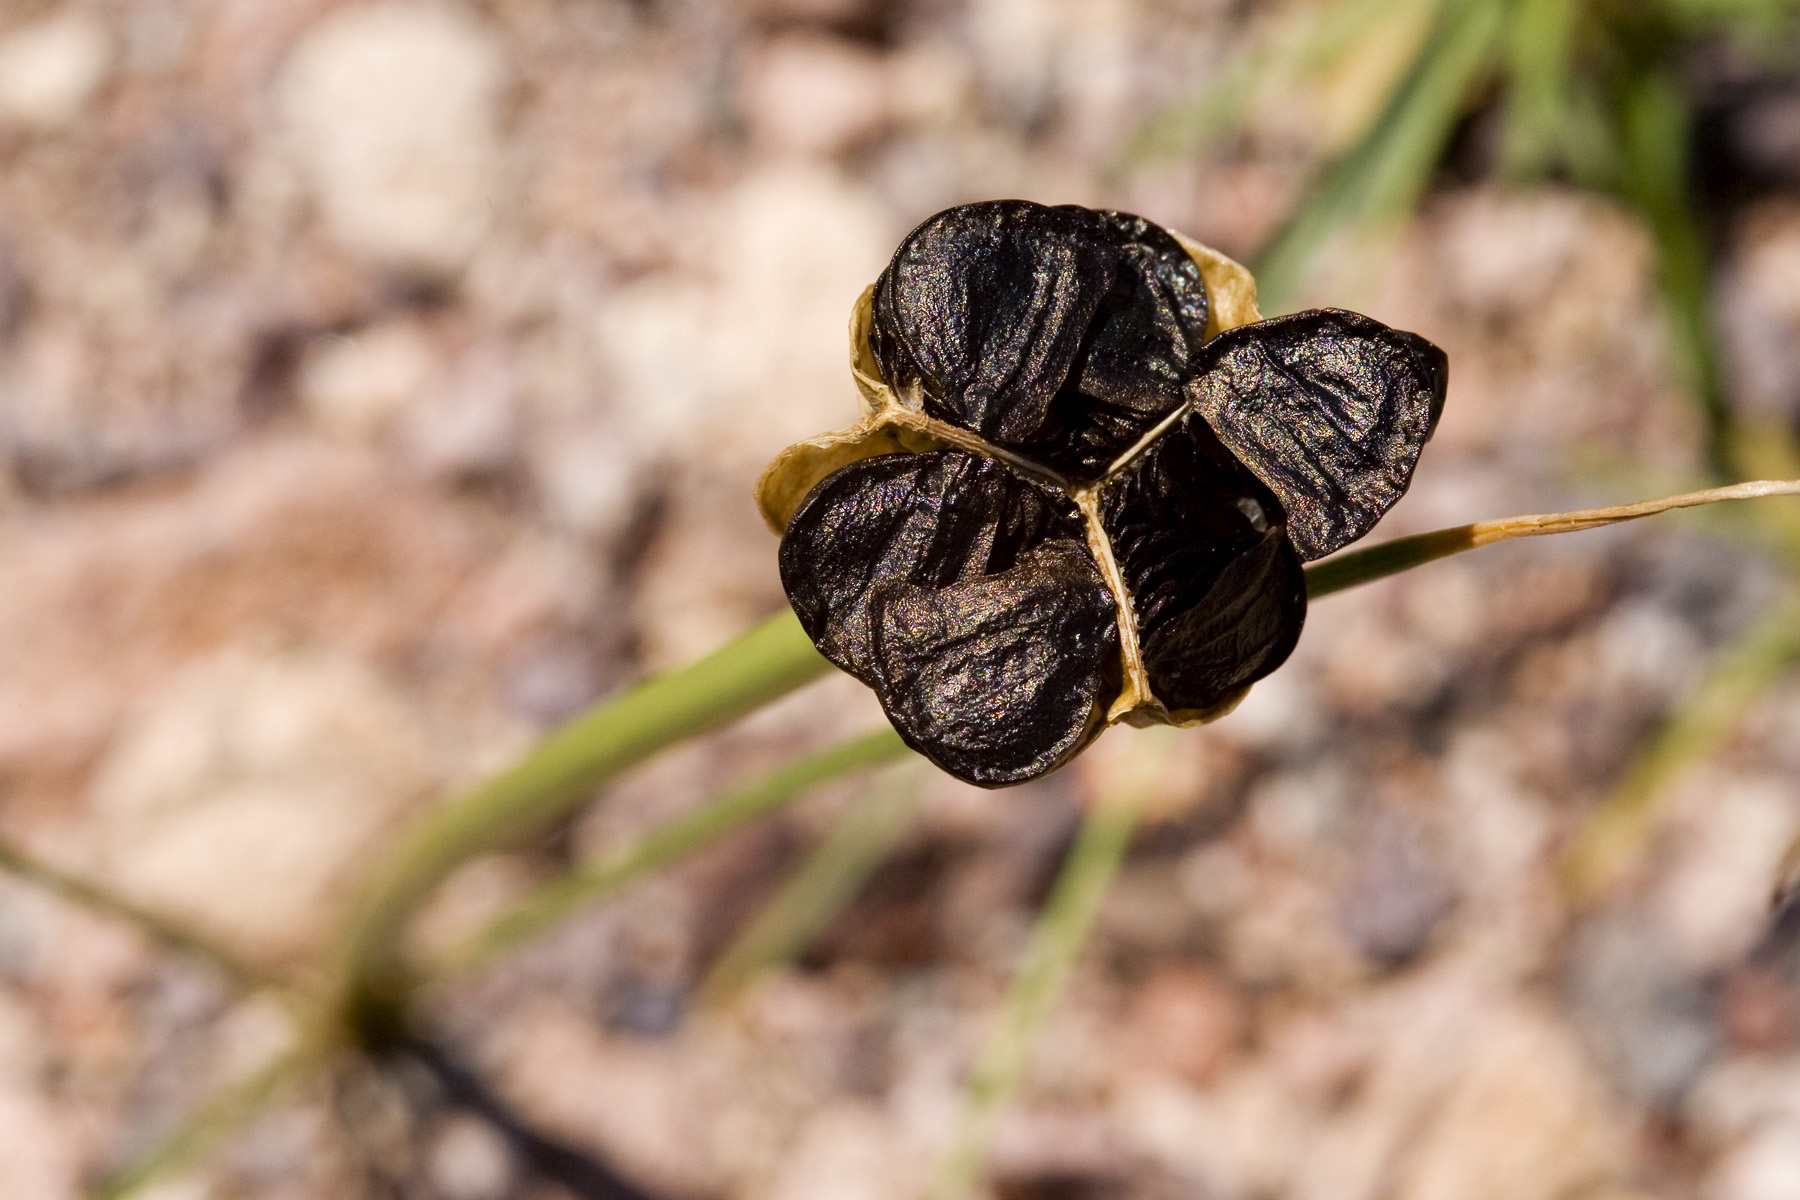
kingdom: Plantae
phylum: Tracheophyta
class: Liliopsida
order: Asparagales
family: Amaryllidaceae
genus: Zephyranthes
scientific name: Zephyranthes longifolia
